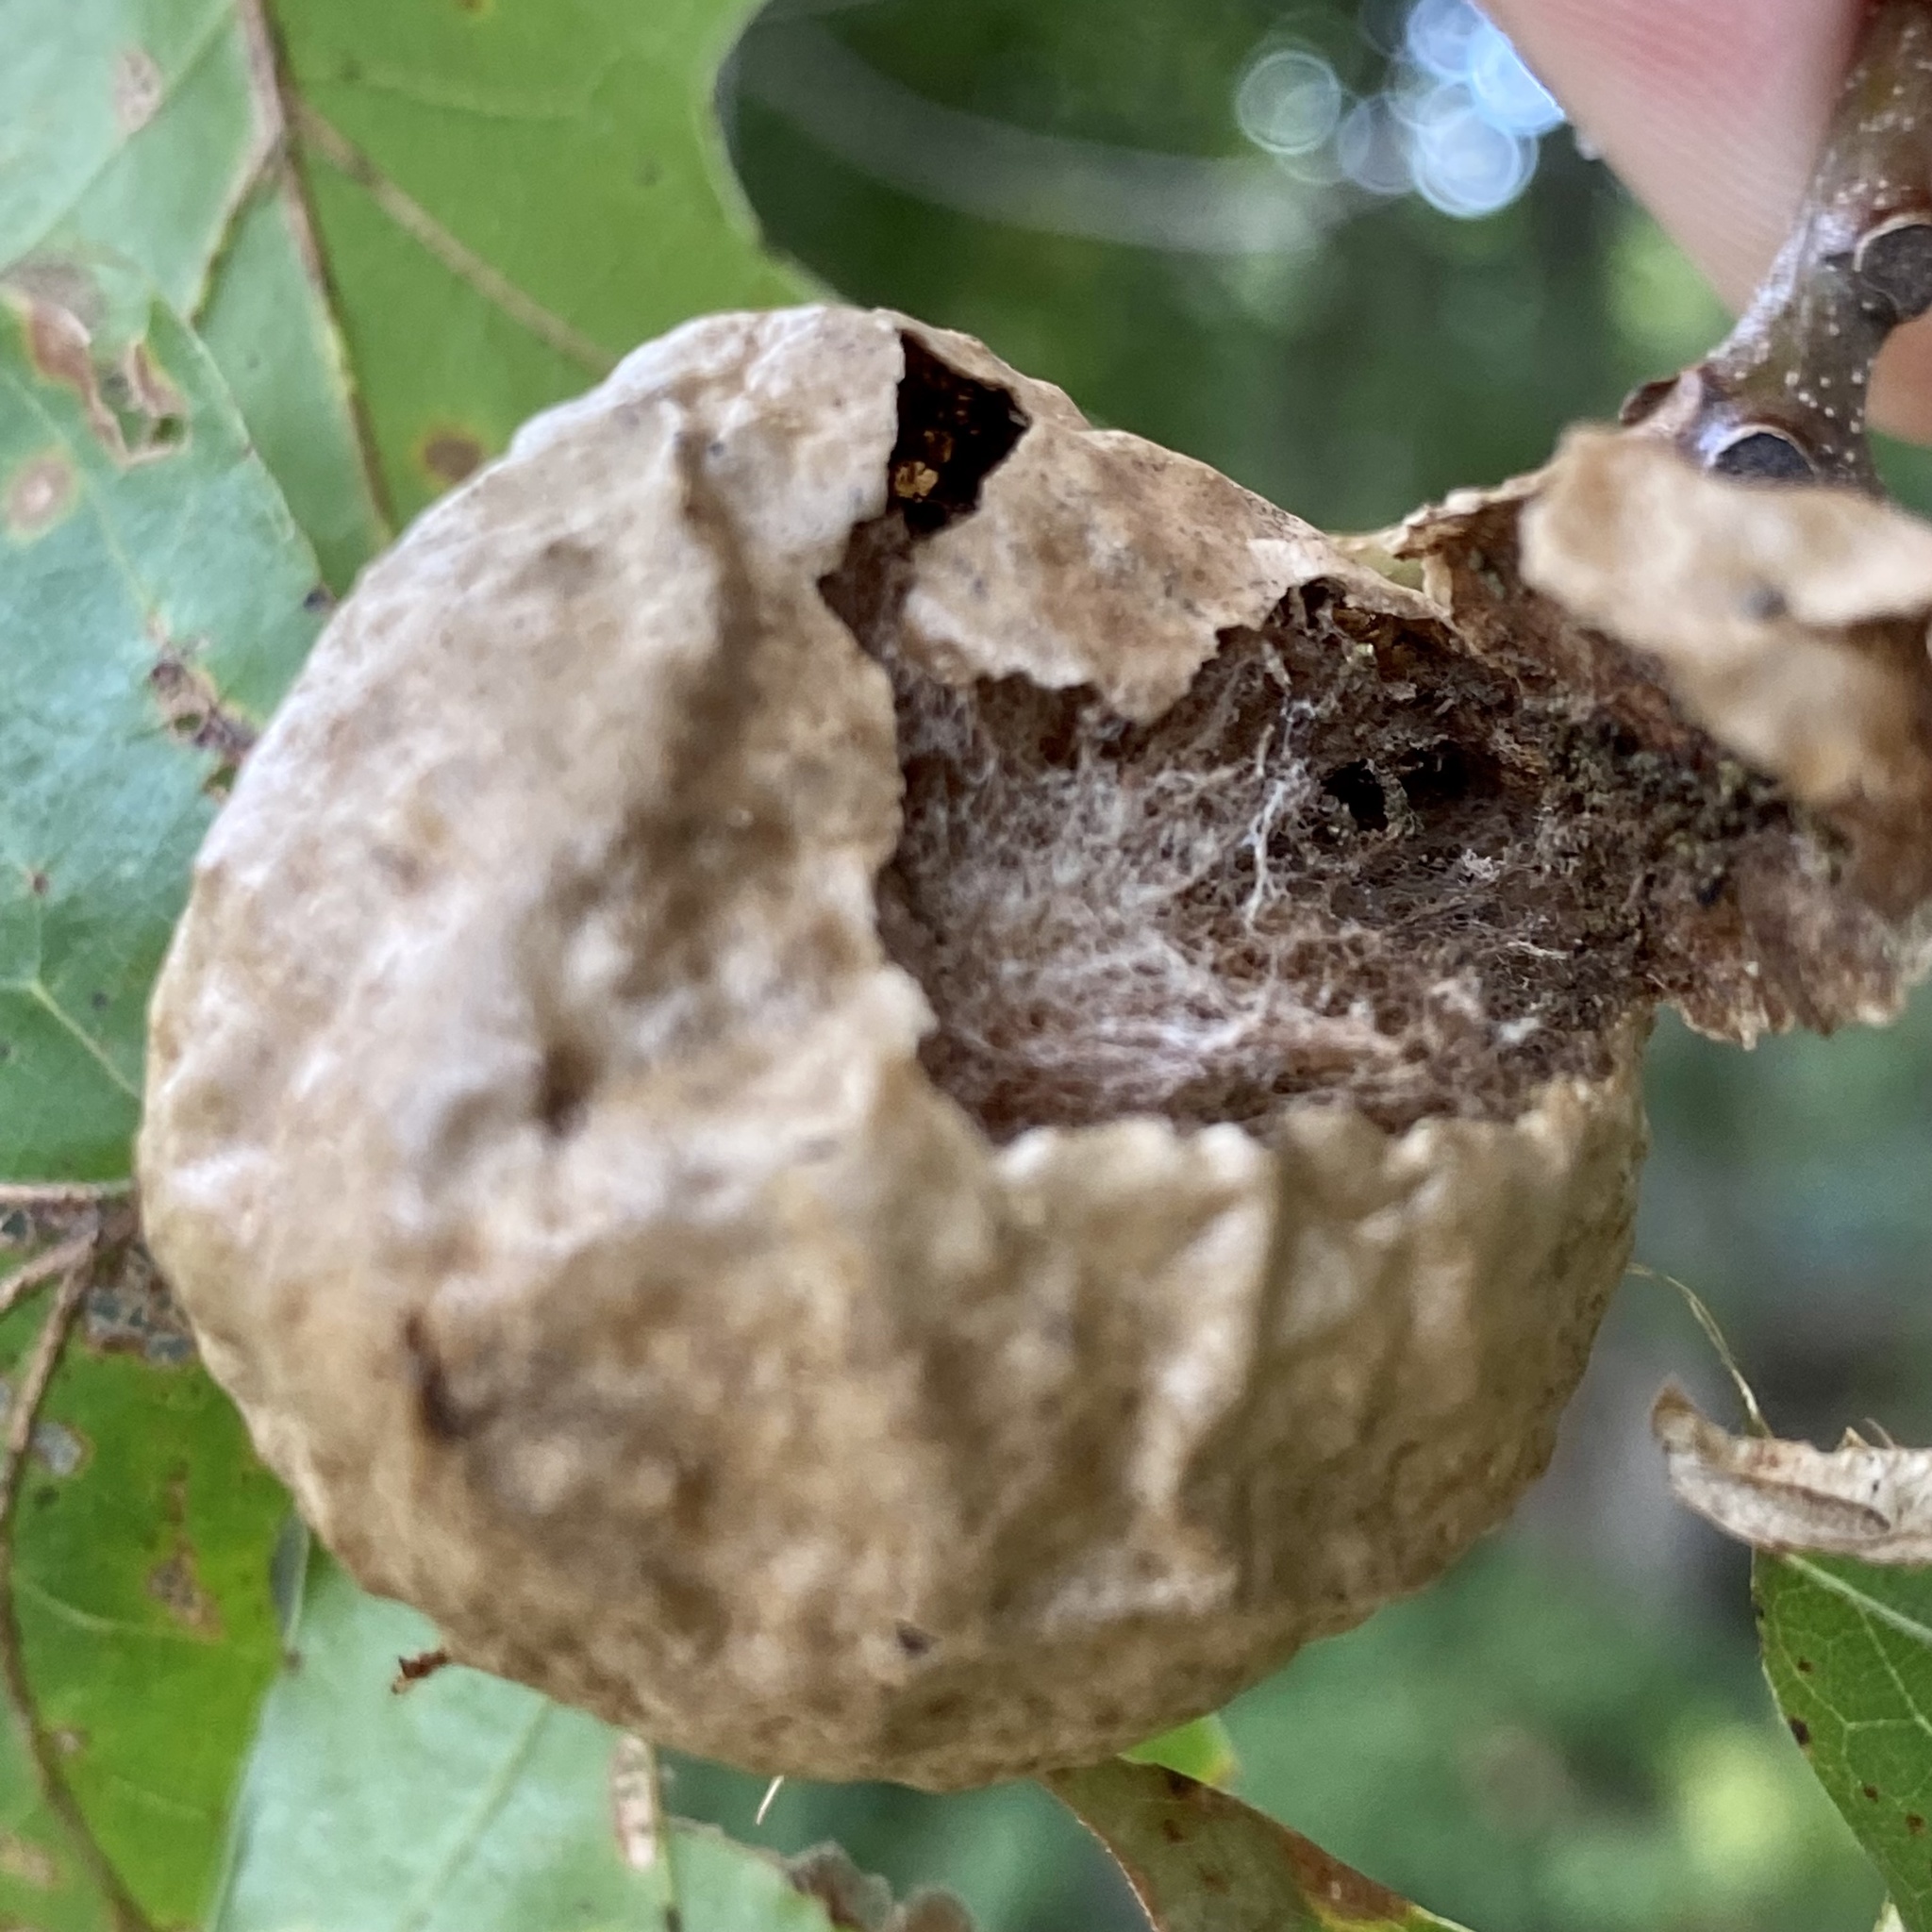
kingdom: Animalia
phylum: Arthropoda
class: Insecta
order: Hymenoptera
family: Cynipidae
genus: Amphibolips
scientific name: Amphibolips
